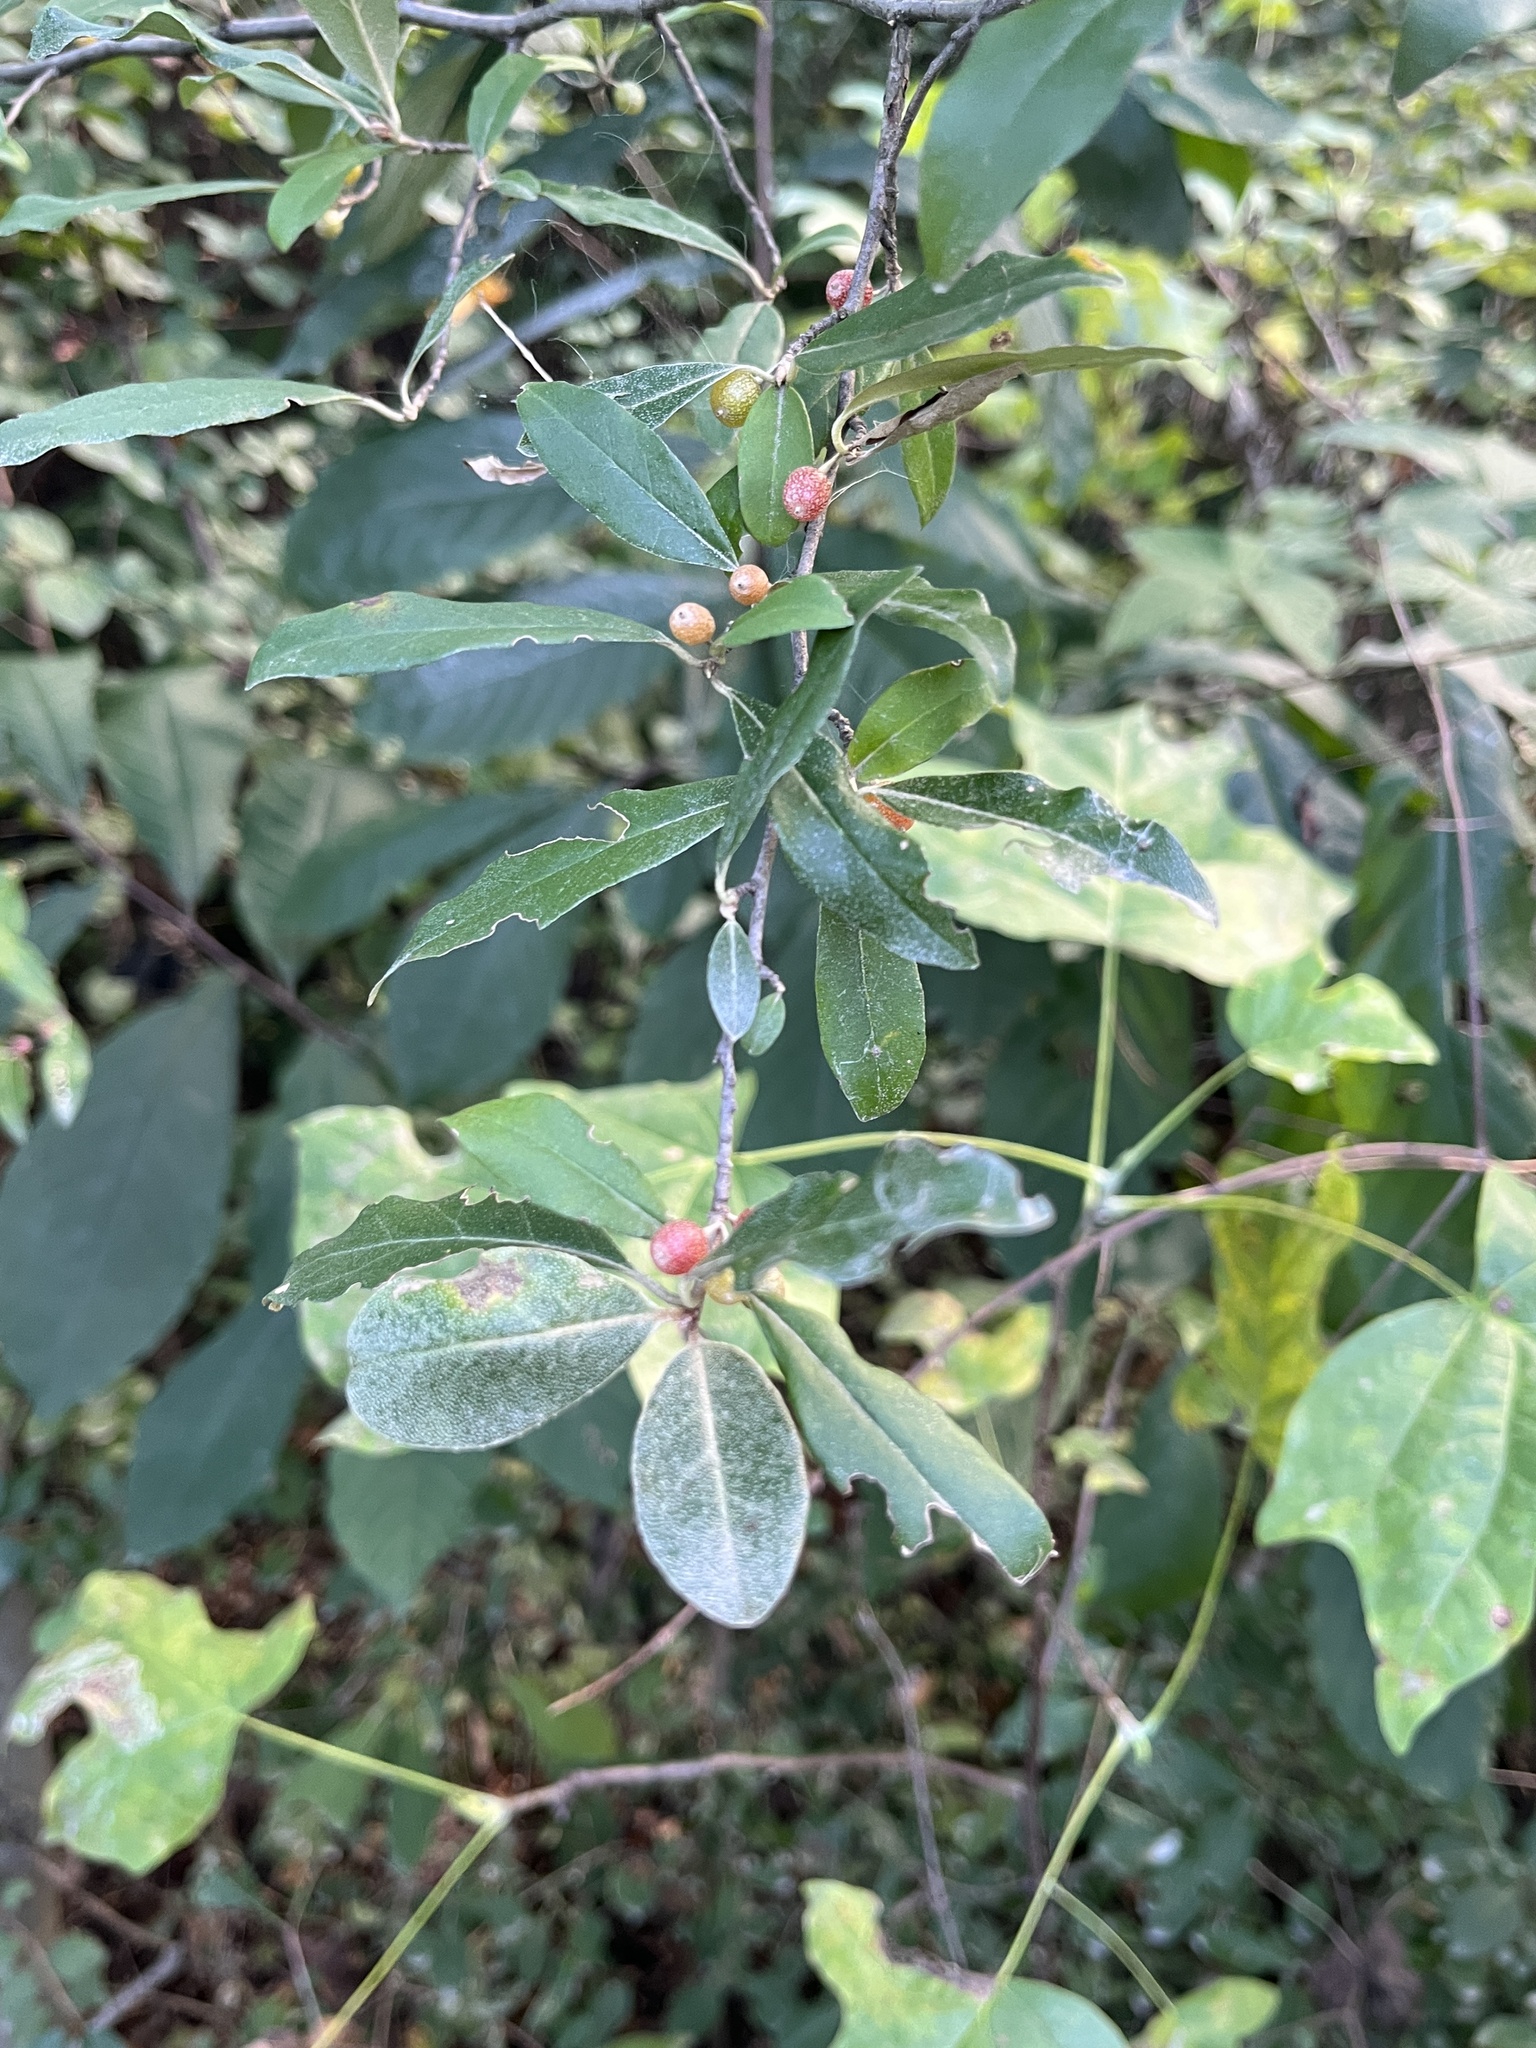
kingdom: Plantae
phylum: Tracheophyta
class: Magnoliopsida
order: Rosales
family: Elaeagnaceae
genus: Elaeagnus
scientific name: Elaeagnus umbellata
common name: Autumn olive
